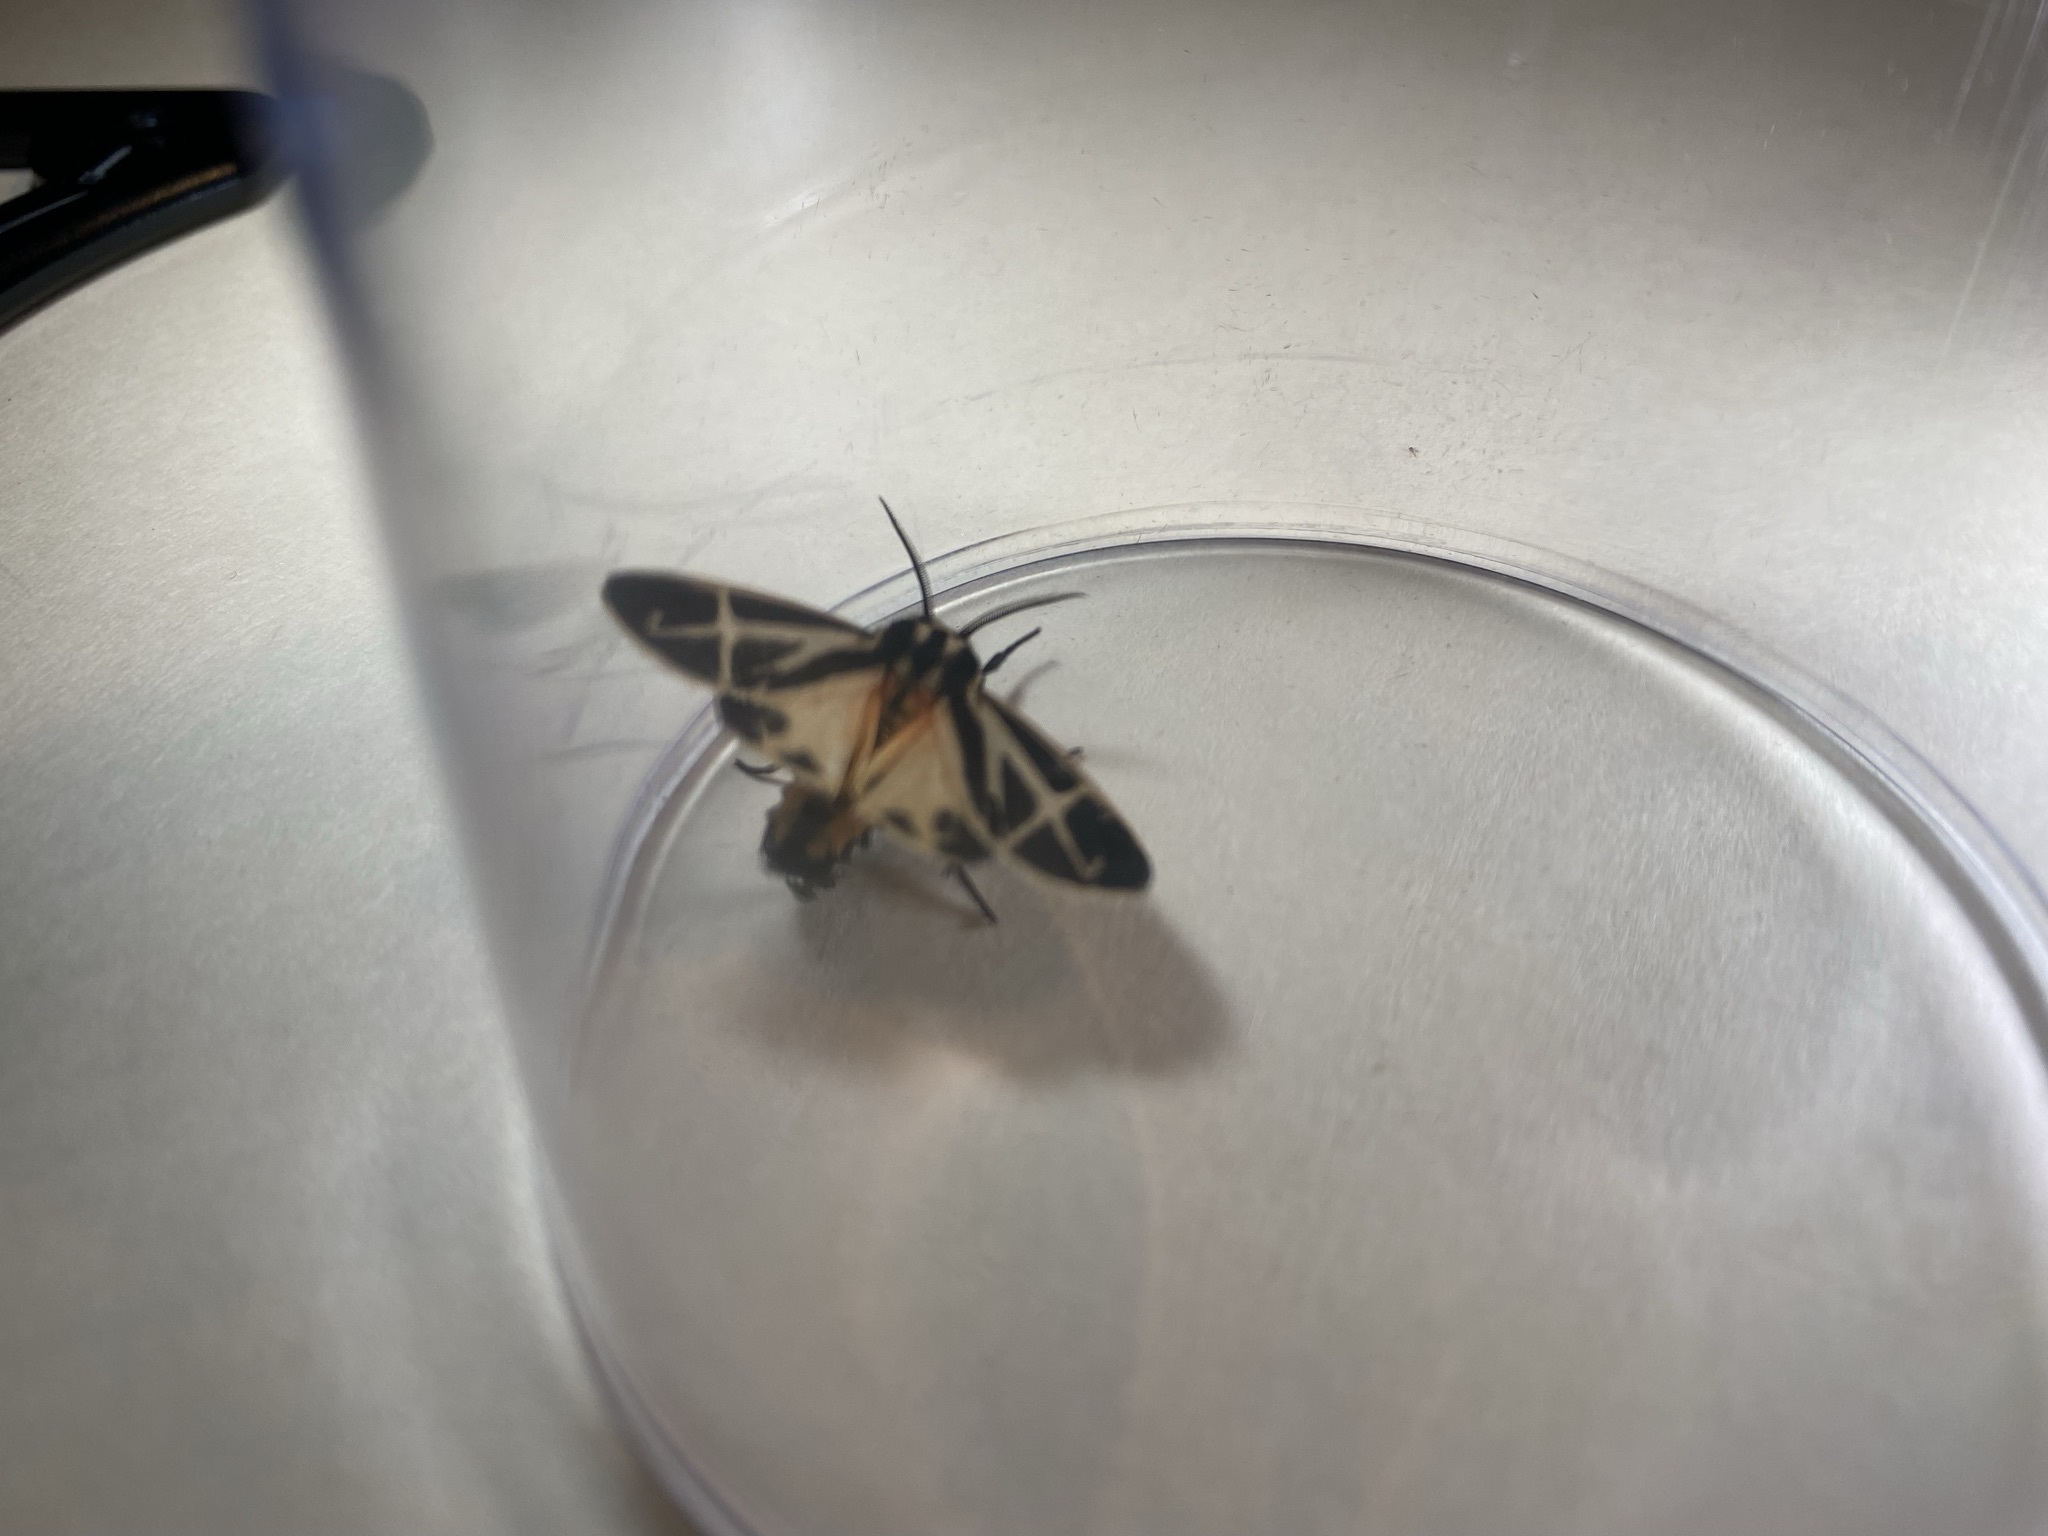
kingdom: Animalia
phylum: Arthropoda
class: Insecta
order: Lepidoptera
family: Erebidae
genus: Apantesis
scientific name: Apantesis phalerata
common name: Harnessed tiger moth
